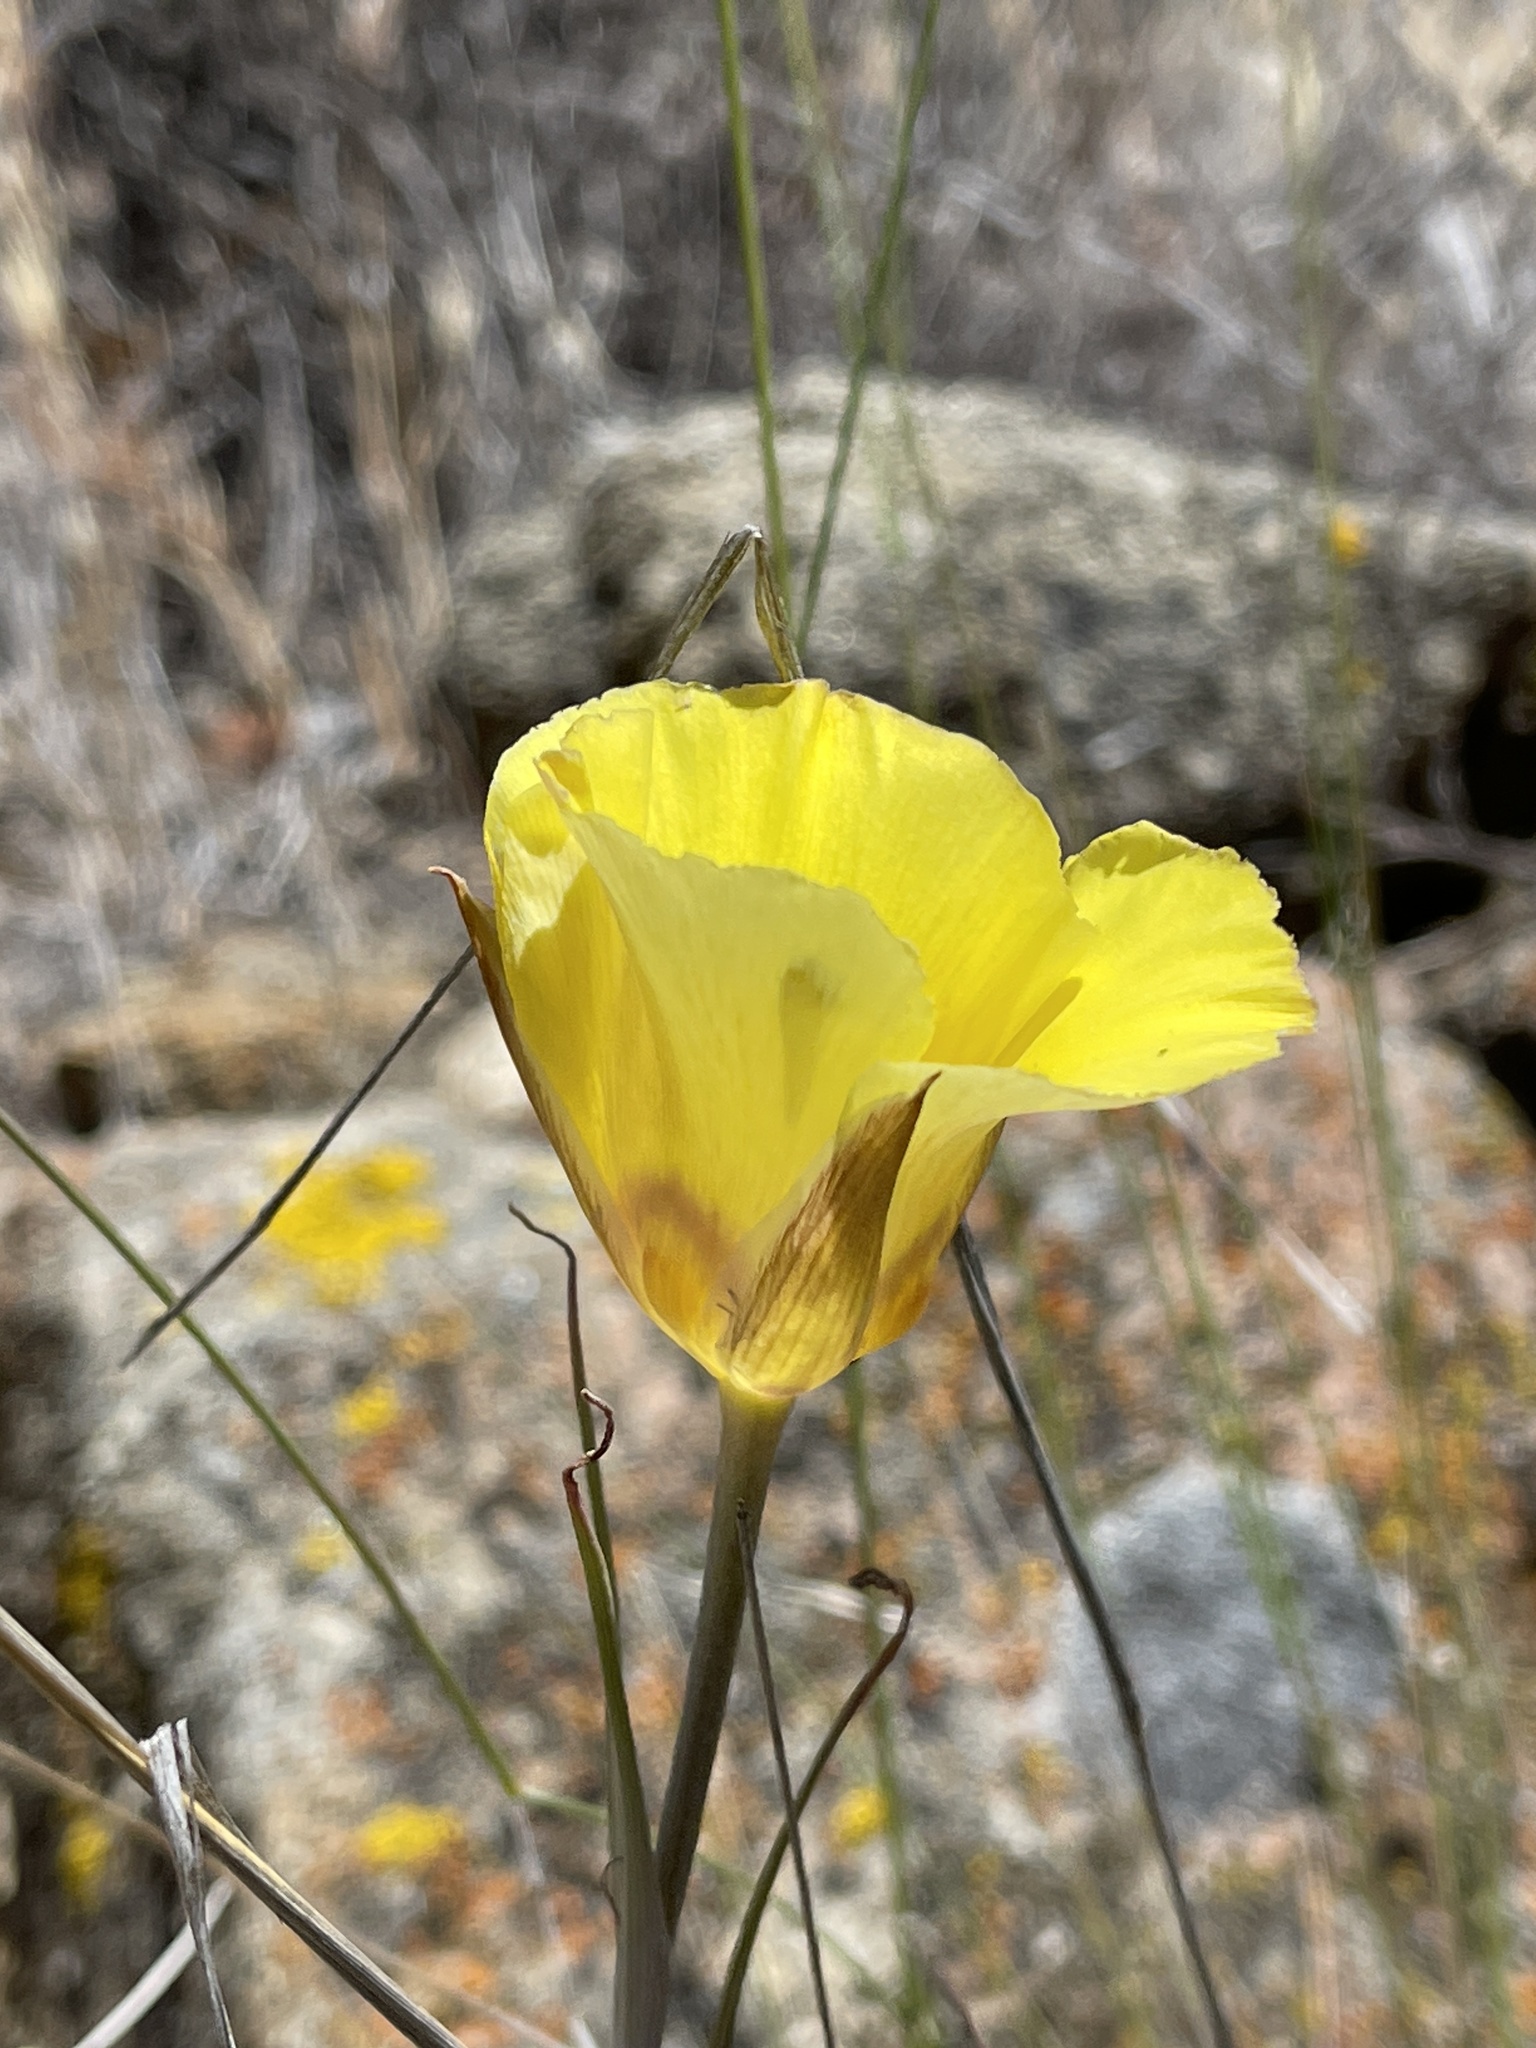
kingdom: Plantae
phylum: Tracheophyta
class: Liliopsida
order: Liliales
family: Liliaceae
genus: Calochortus
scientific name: Calochortus concolor
